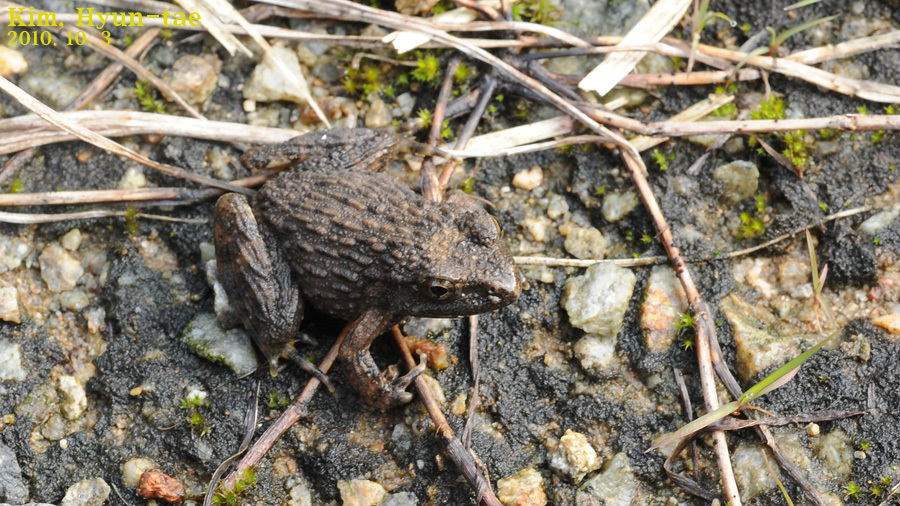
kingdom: Animalia
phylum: Chordata
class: Amphibia
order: Anura
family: Ranidae
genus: Glandirana
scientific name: Glandirana emeljanovi
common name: Northeast china rough-skinned frog
